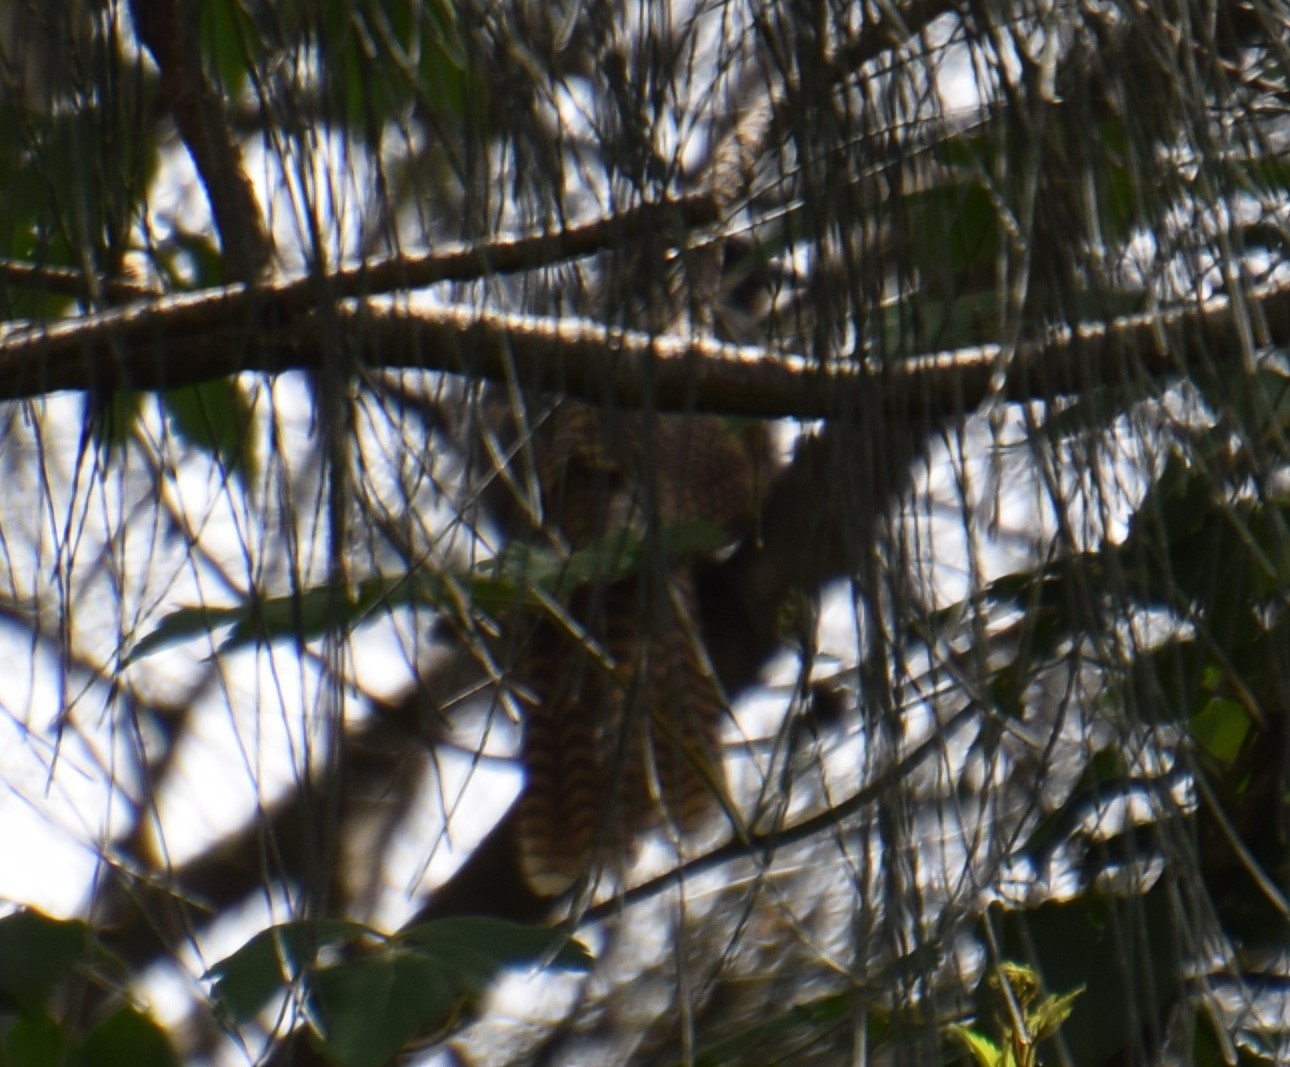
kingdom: Animalia
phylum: Chordata
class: Aves
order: Cuculiformes
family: Cuculidae
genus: Eudynamys
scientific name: Eudynamys orientalis
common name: Pacific koel
